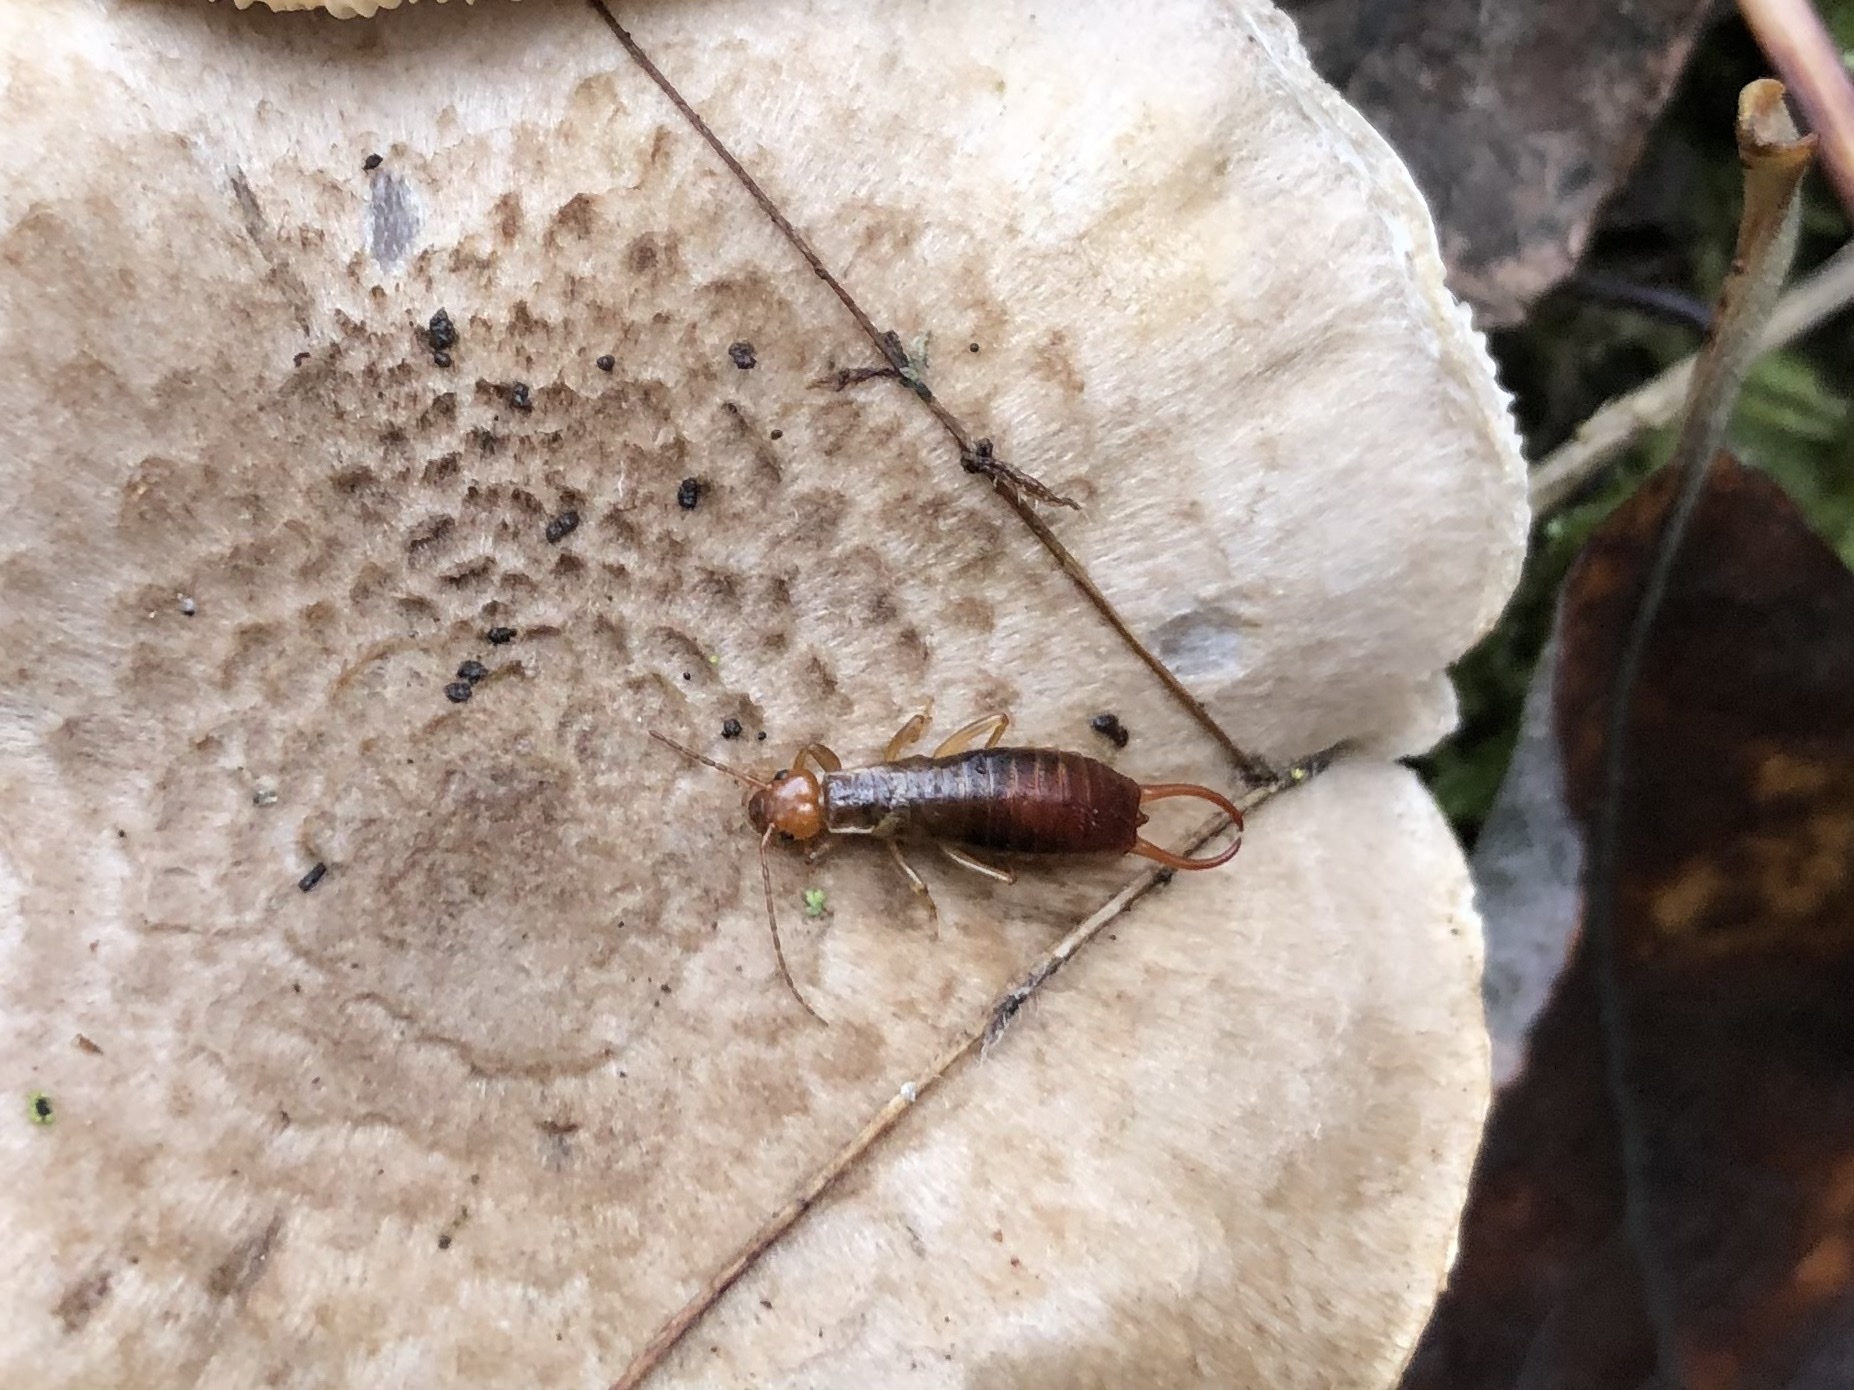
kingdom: Animalia
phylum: Arthropoda
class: Insecta
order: Dermaptera
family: Forficulidae
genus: Chelidurella
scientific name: Chelidurella acanthopygia
